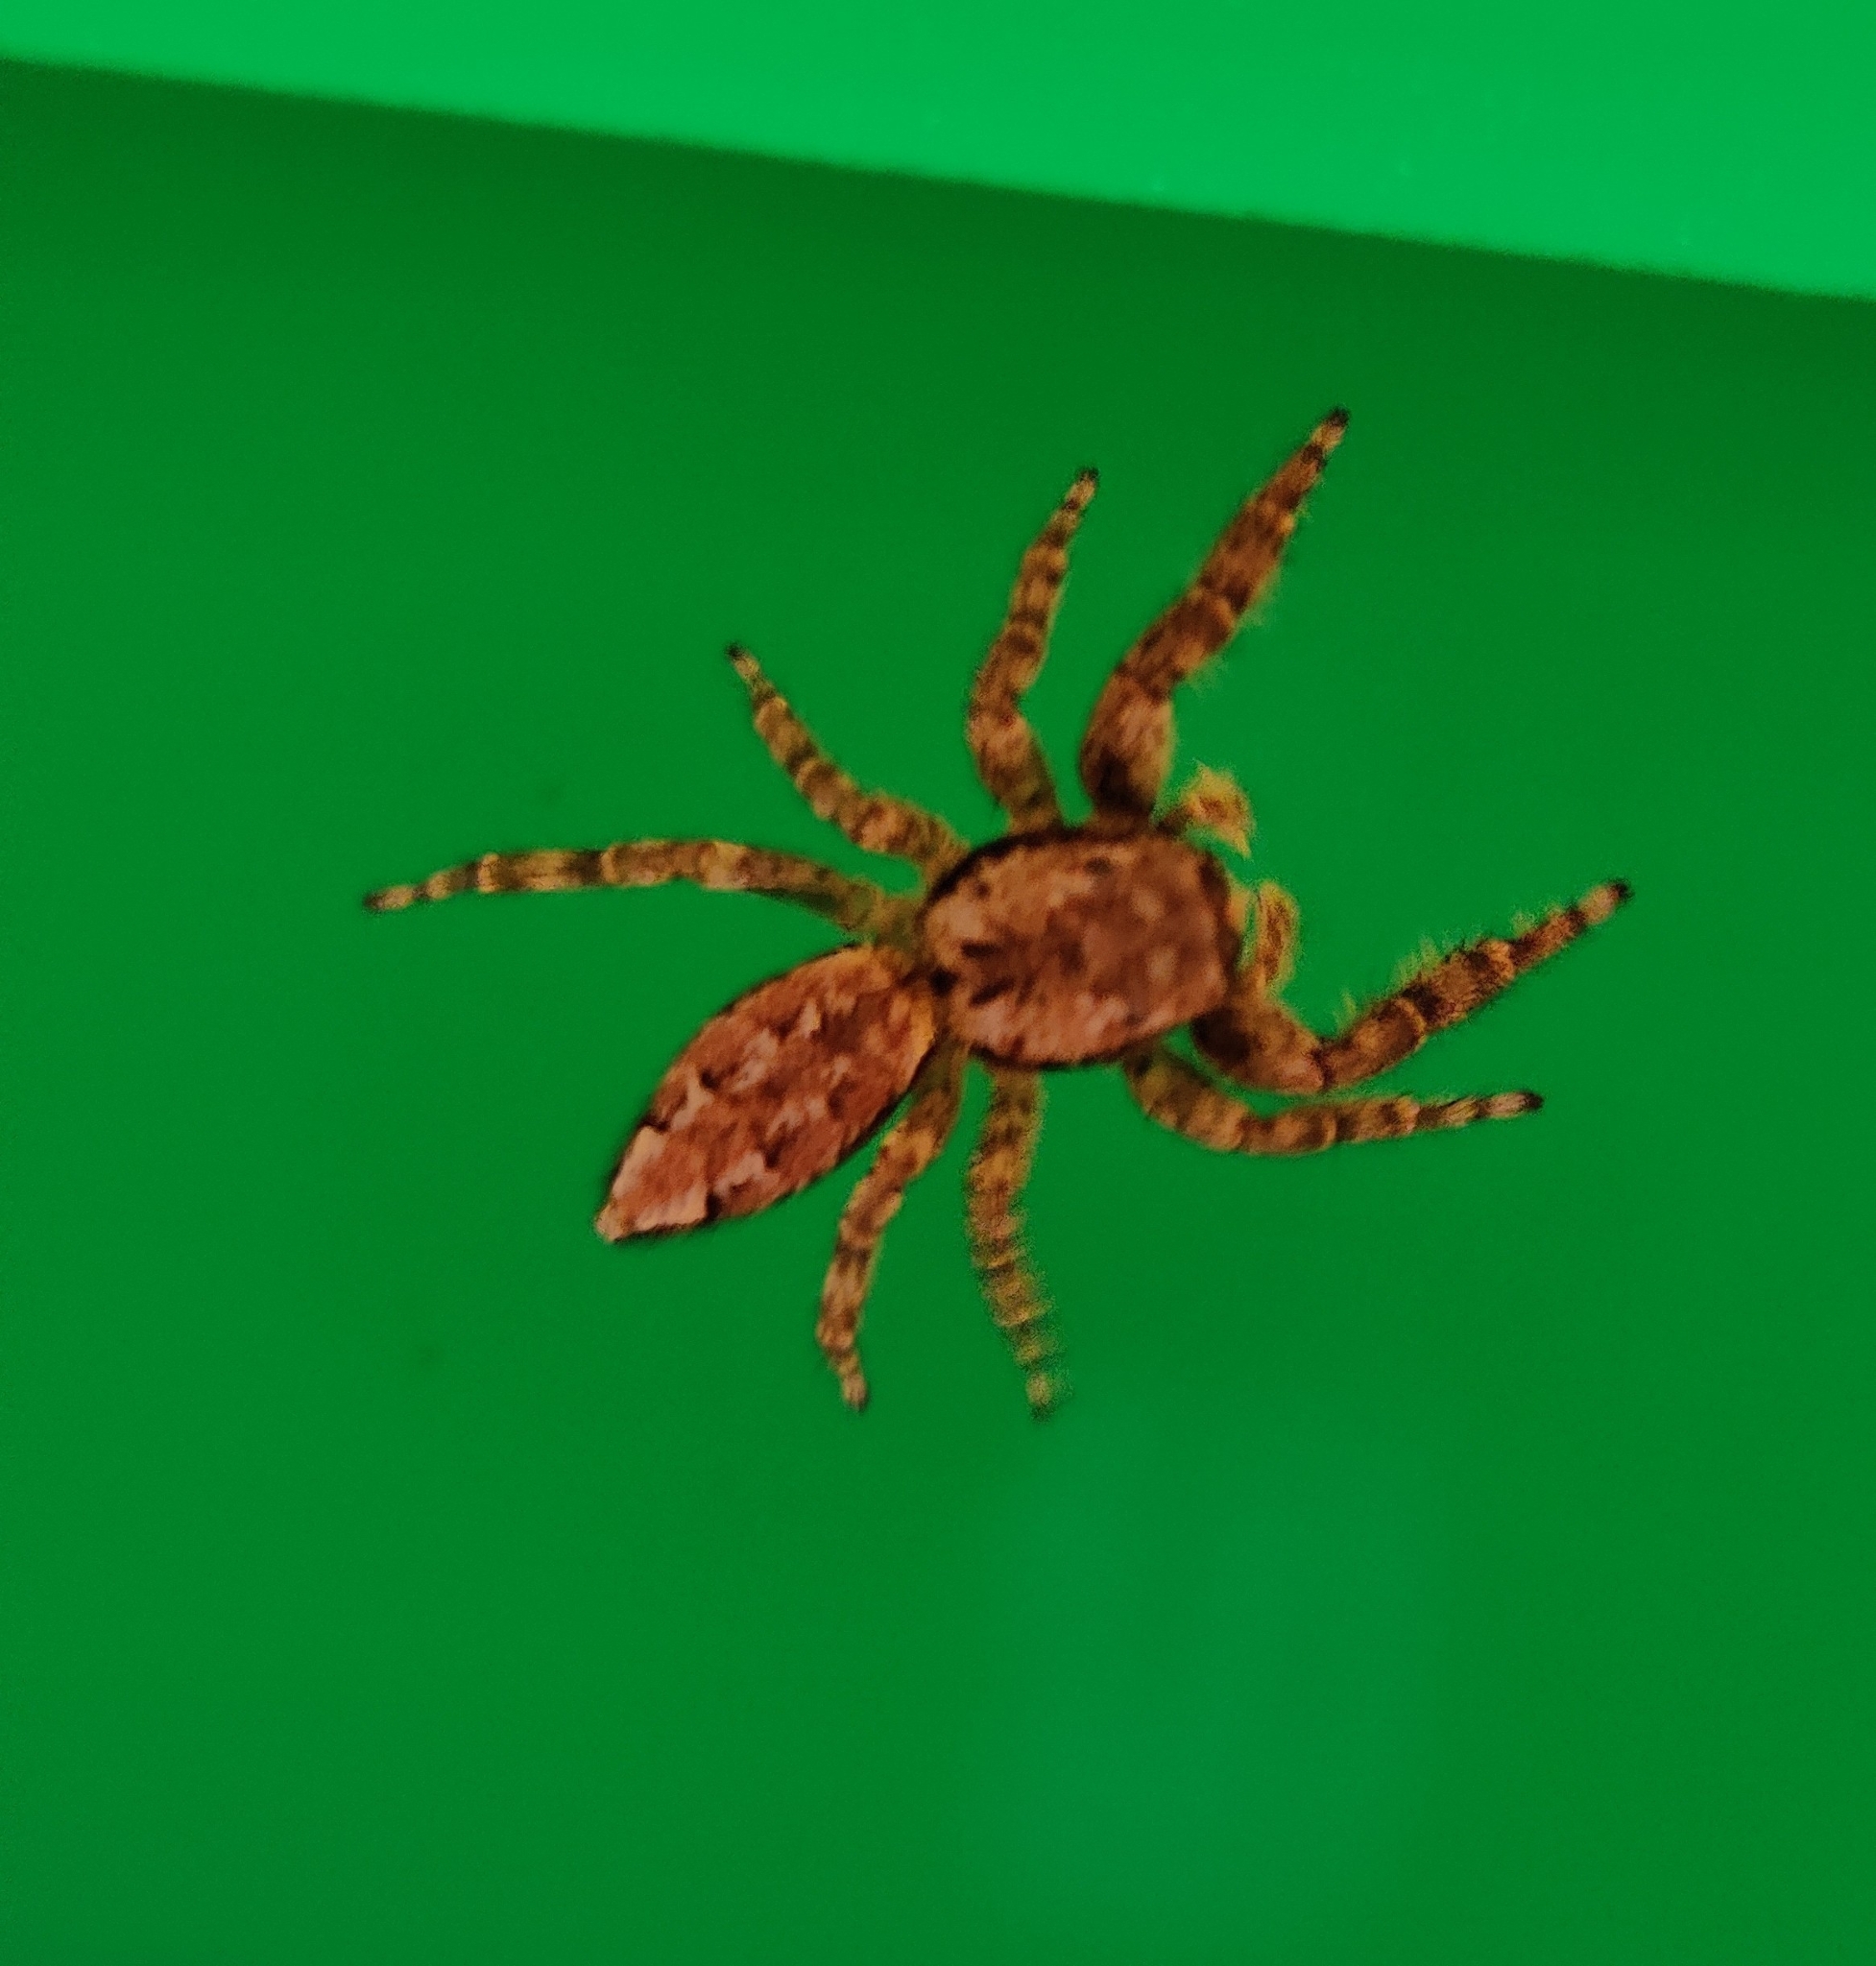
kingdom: Animalia
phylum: Arthropoda
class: Arachnida
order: Araneae
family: Salticidae
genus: Marpissa
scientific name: Marpissa muscosa
